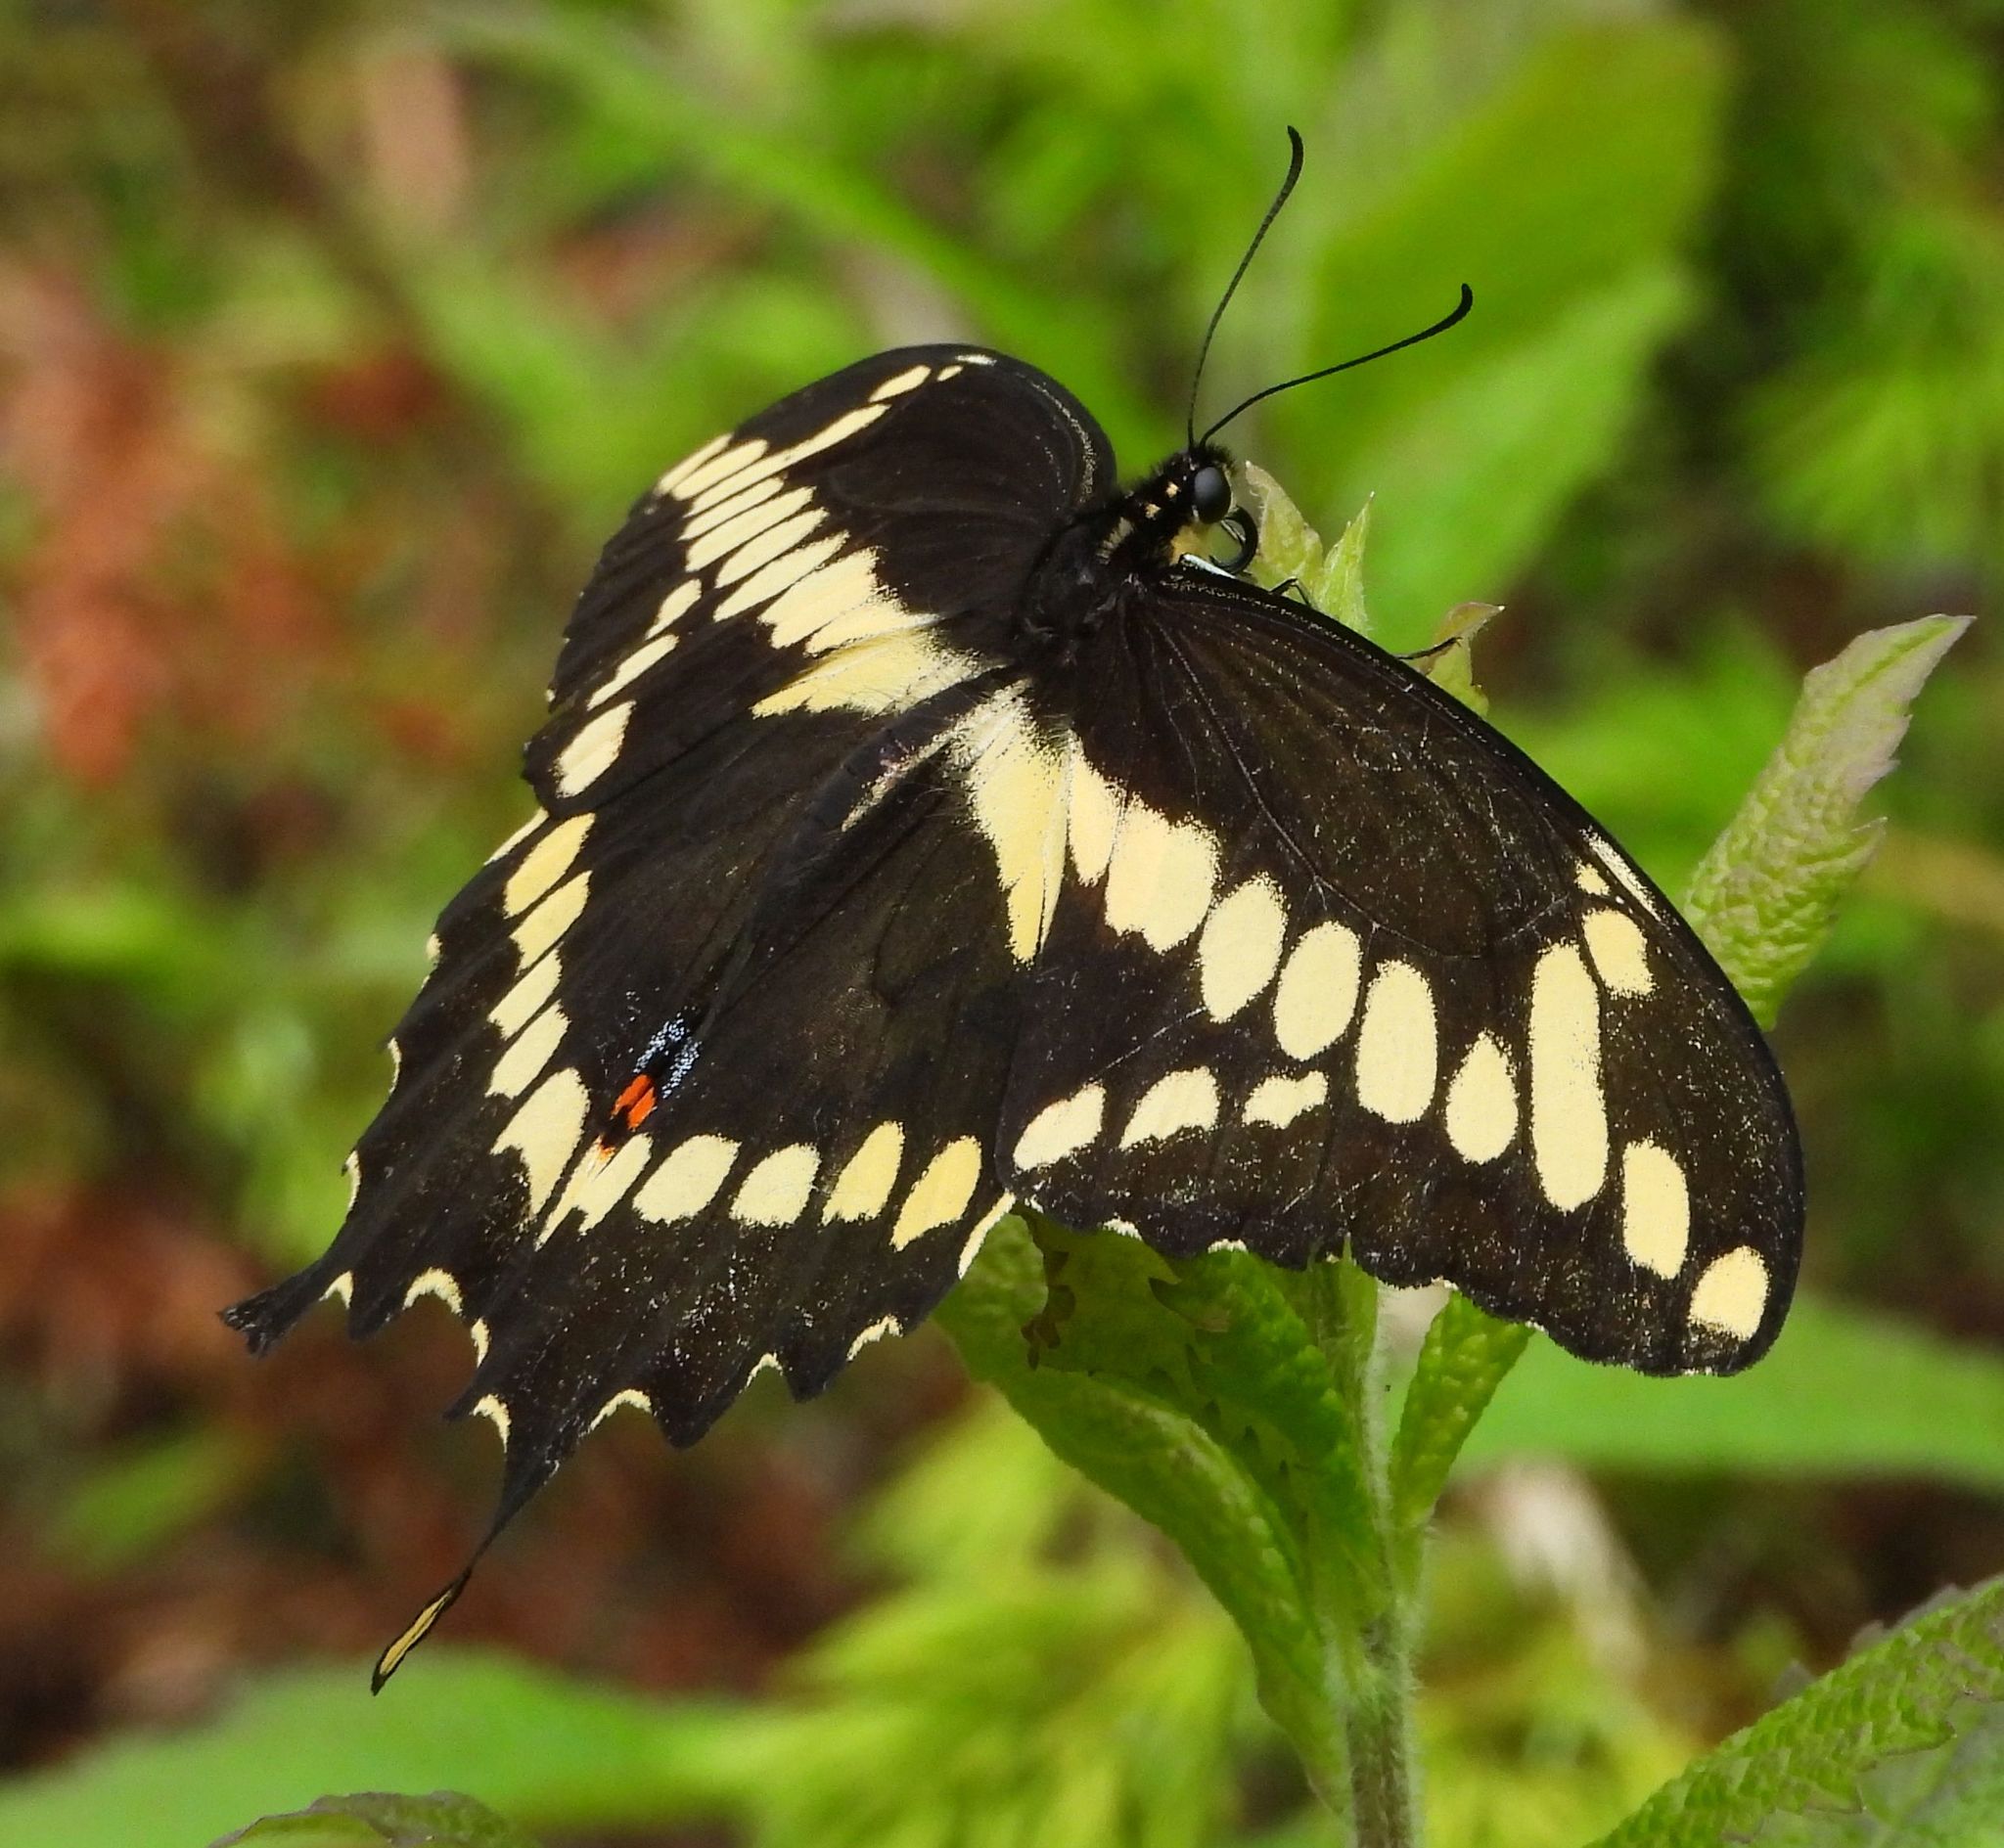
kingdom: Animalia
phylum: Arthropoda
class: Insecta
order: Lepidoptera
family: Papilionidae
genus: Papilio
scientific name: Papilio cresphontes
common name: Giant swallowtail
